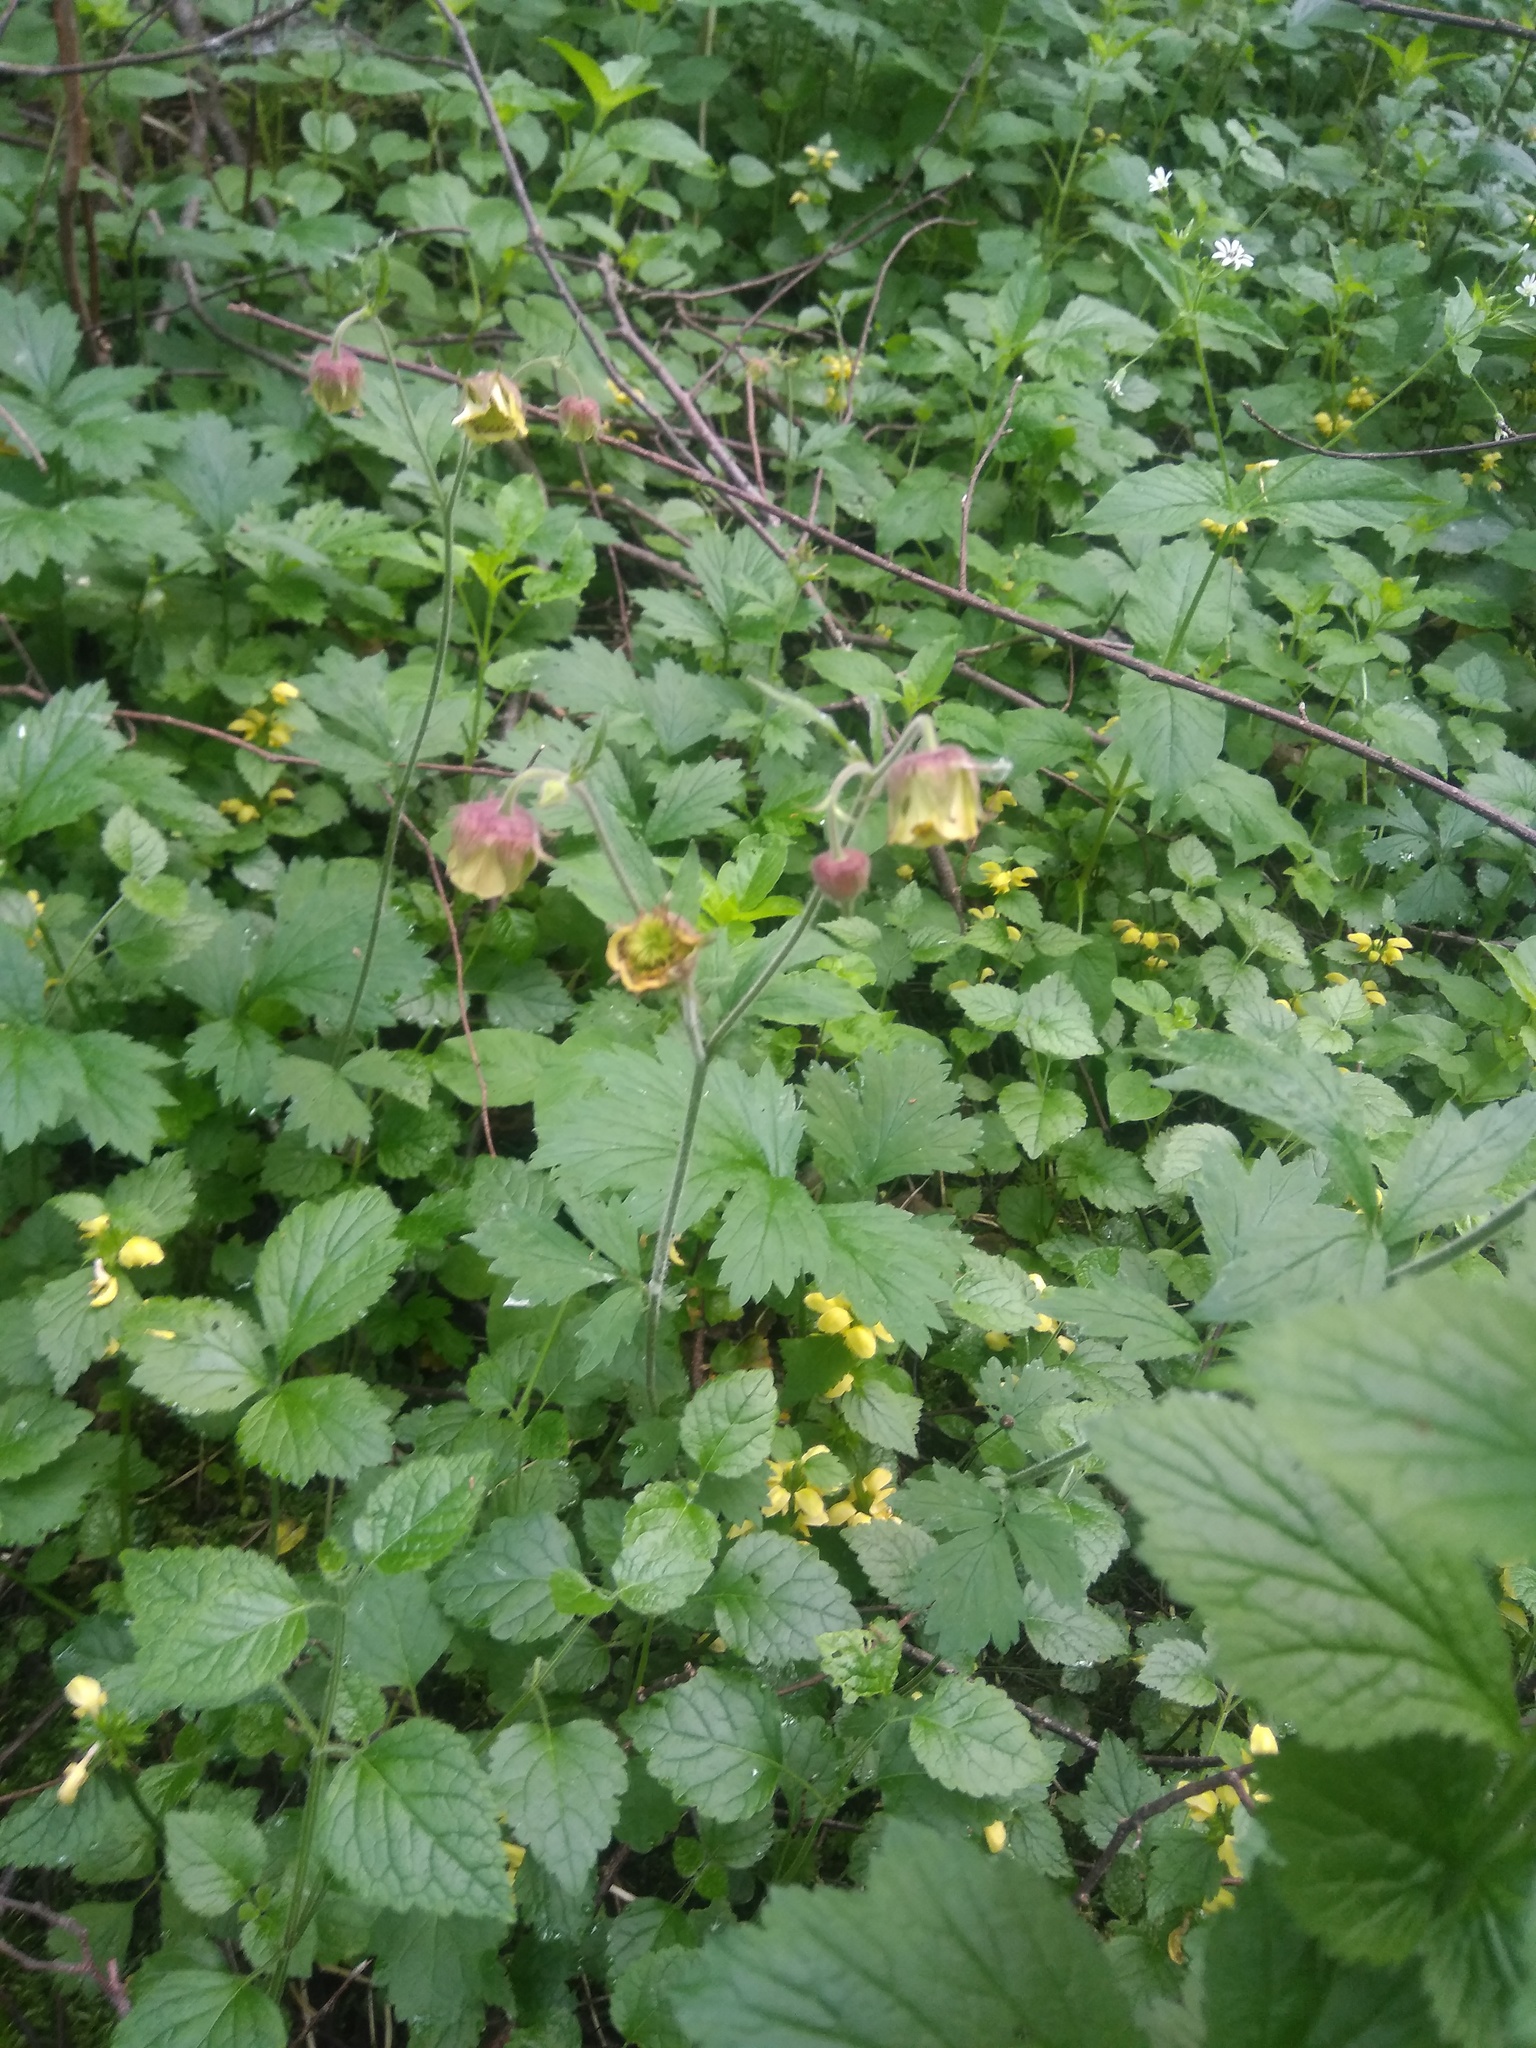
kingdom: Plantae
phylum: Tracheophyta
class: Magnoliopsida
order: Rosales
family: Rosaceae
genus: Geum
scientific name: Geum rivale
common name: Water avens
